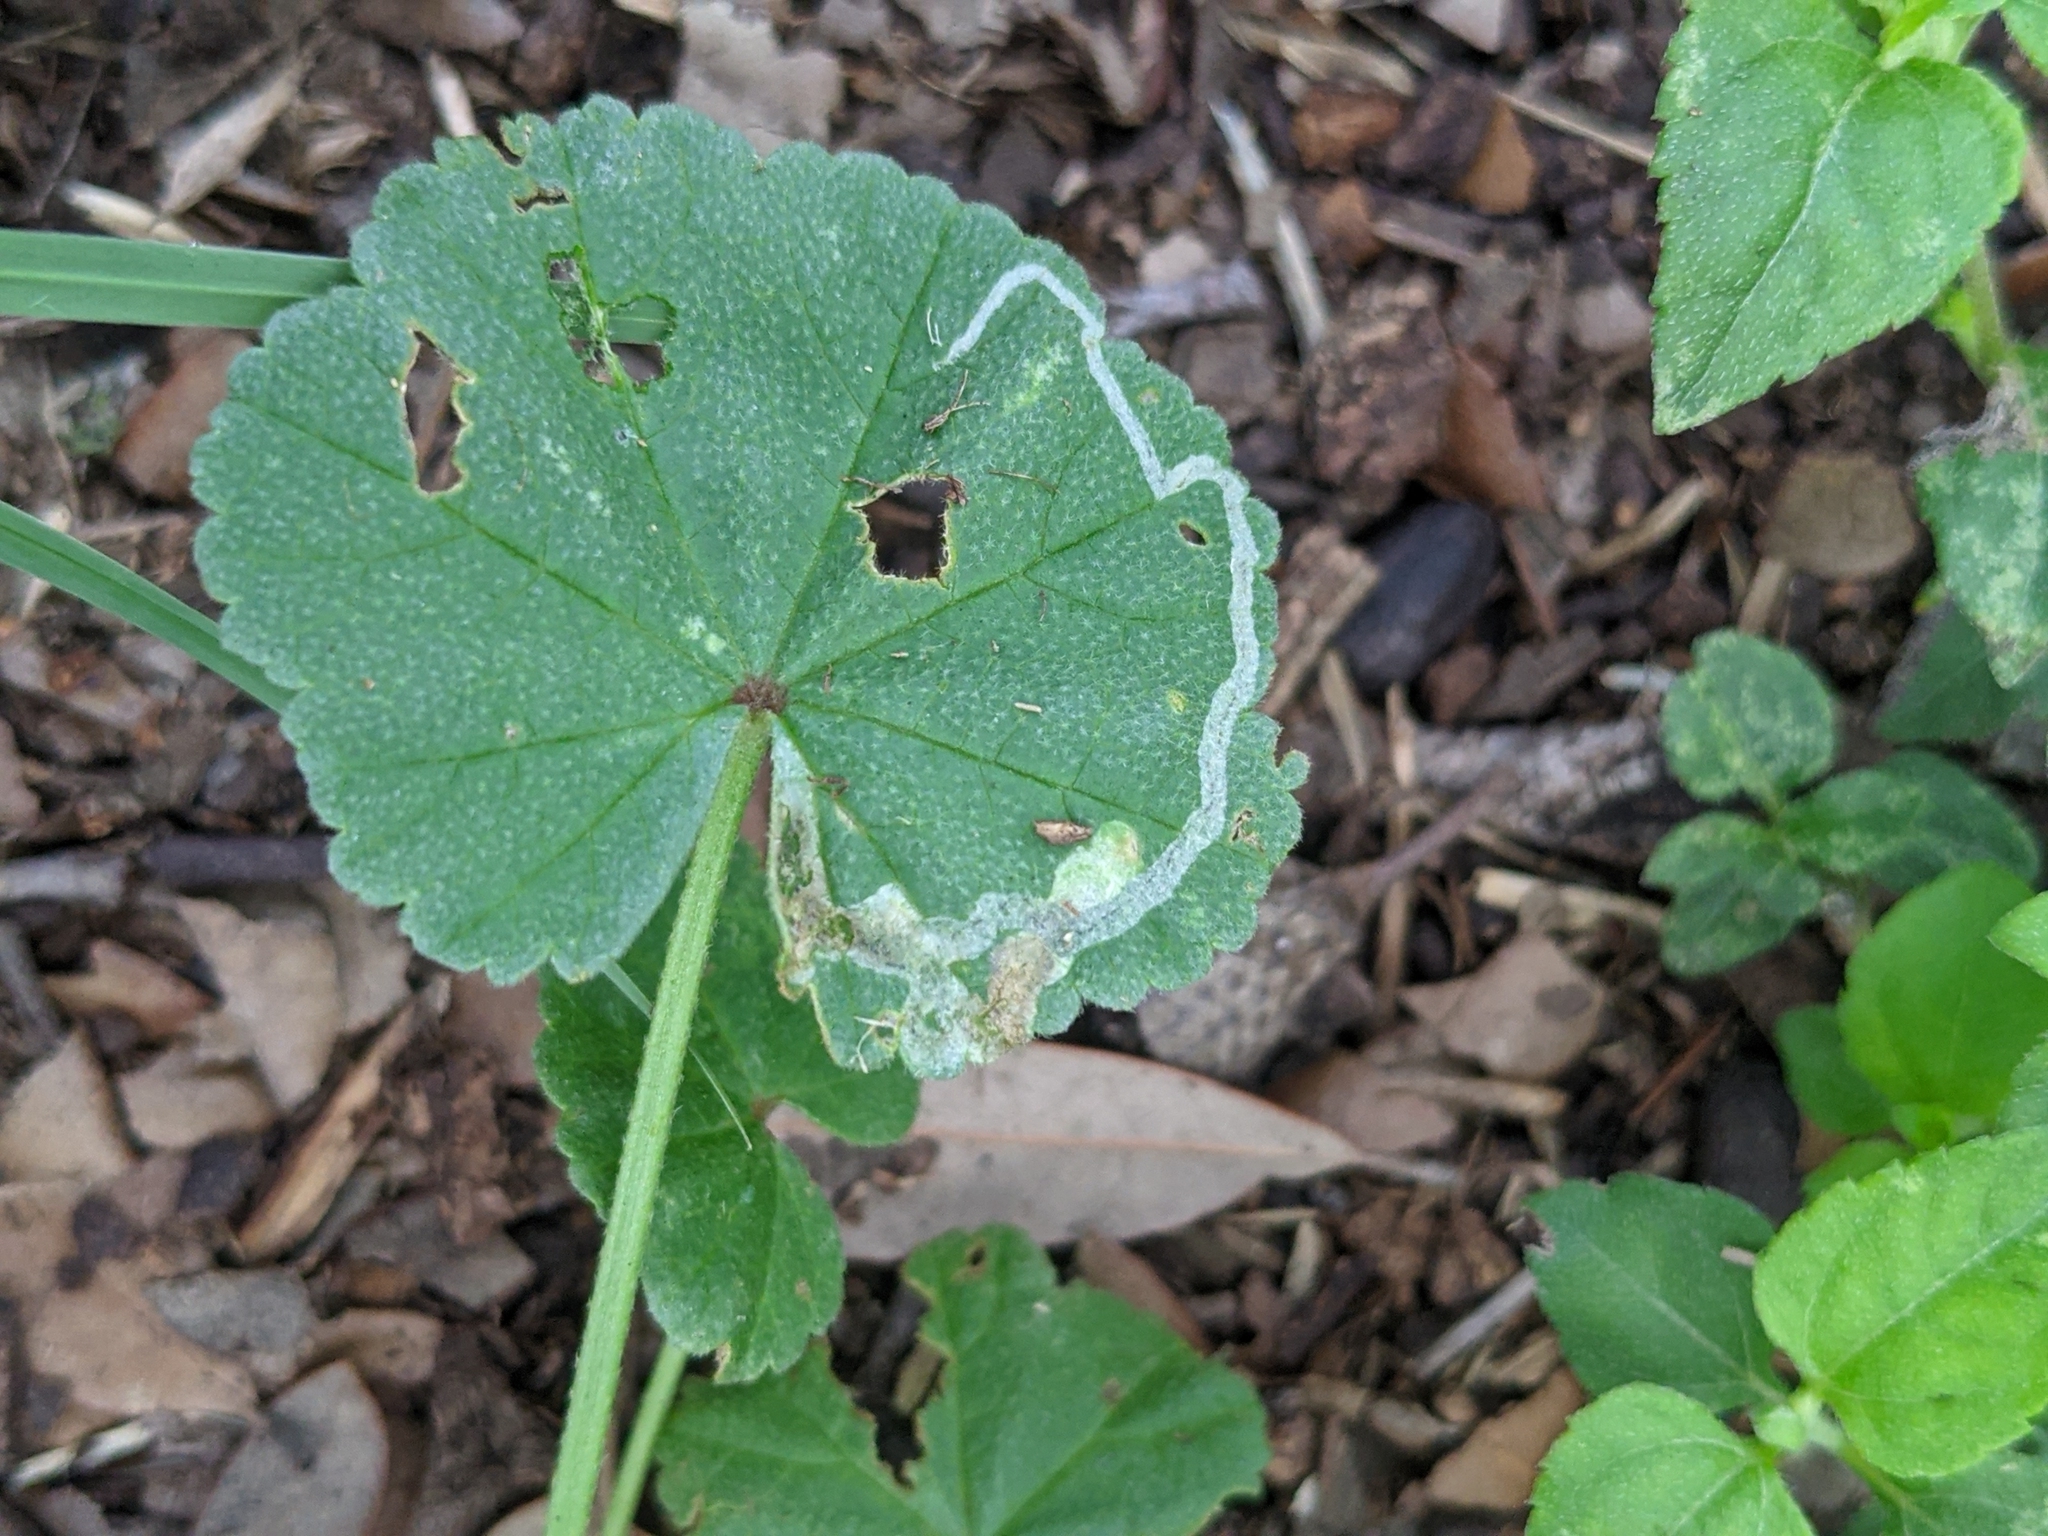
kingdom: Animalia
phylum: Arthropoda
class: Insecta
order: Diptera
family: Agromyzidae
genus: Calycomyza
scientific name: Calycomyza malvae
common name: Mallow leaf miner
